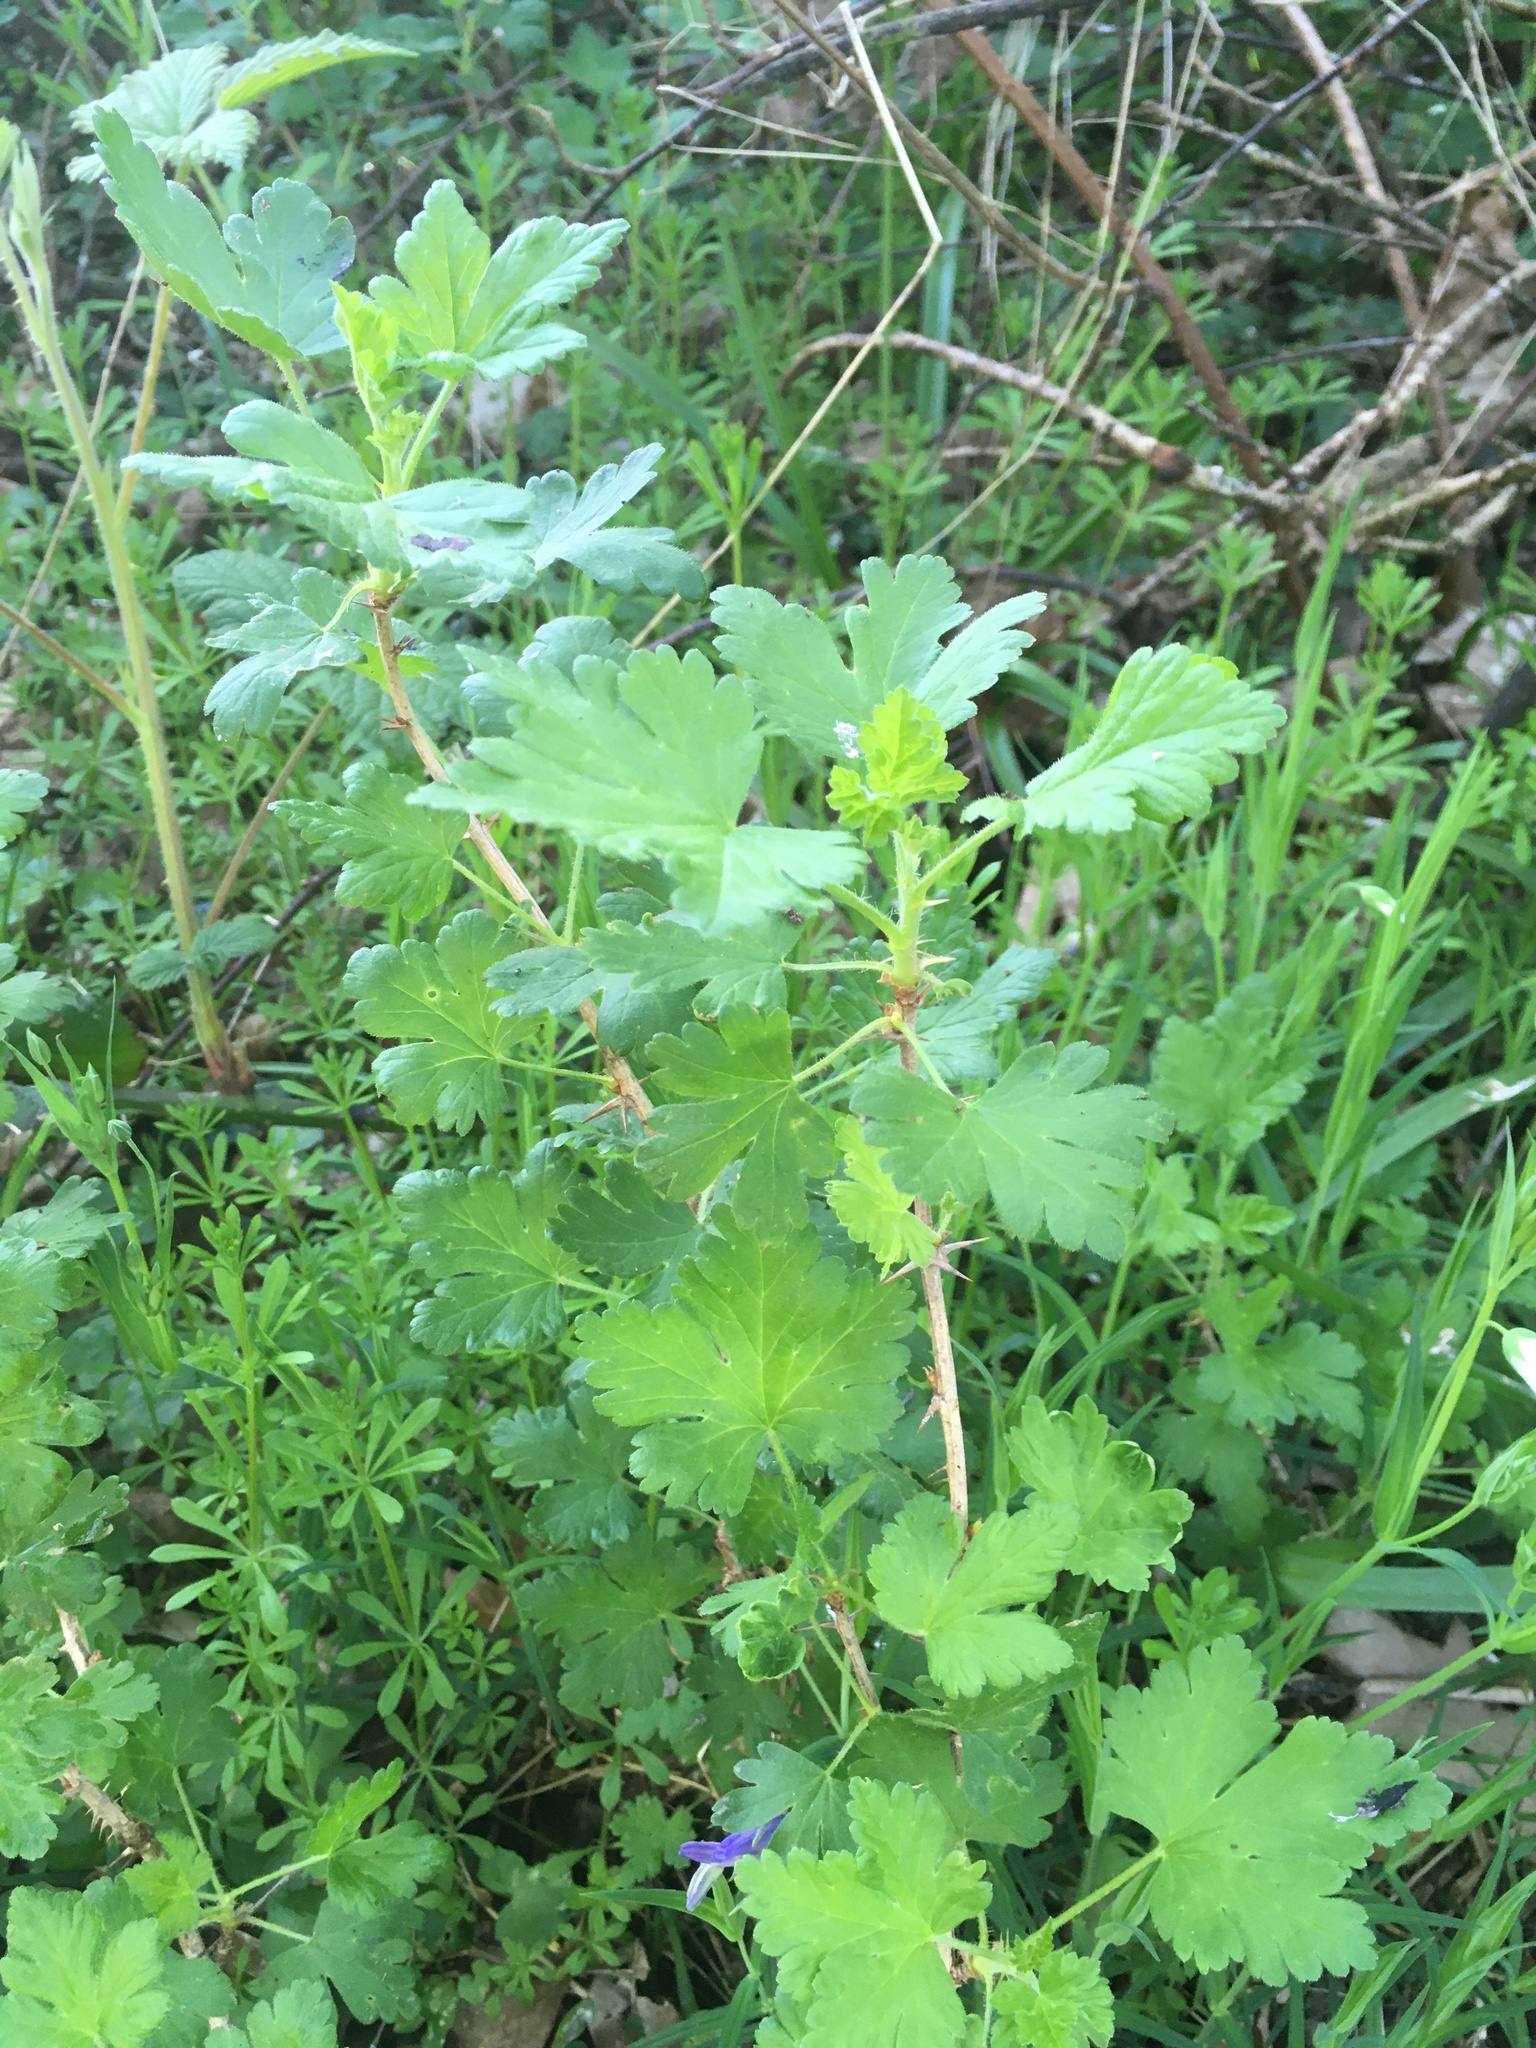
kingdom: Plantae
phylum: Tracheophyta
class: Magnoliopsida
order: Saxifragales
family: Grossulariaceae
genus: Ribes
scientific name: Ribes uva-crispa
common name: Gooseberry
